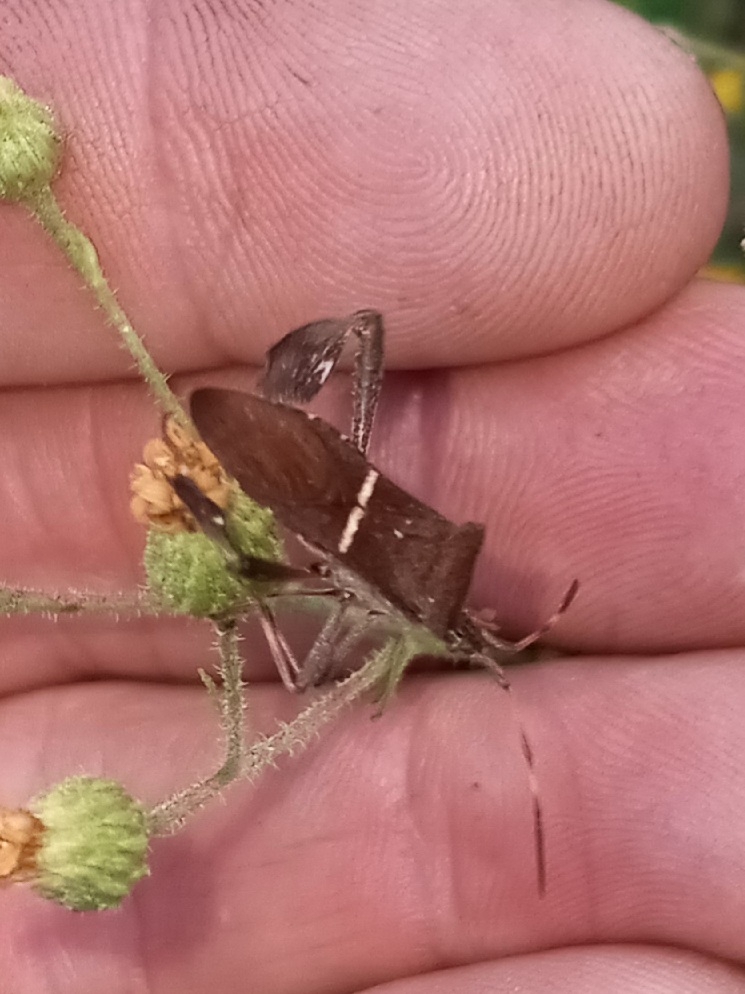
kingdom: Animalia
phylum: Arthropoda
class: Insecta
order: Hemiptera
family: Coreidae
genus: Leptoglossus
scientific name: Leptoglossus phyllopus
